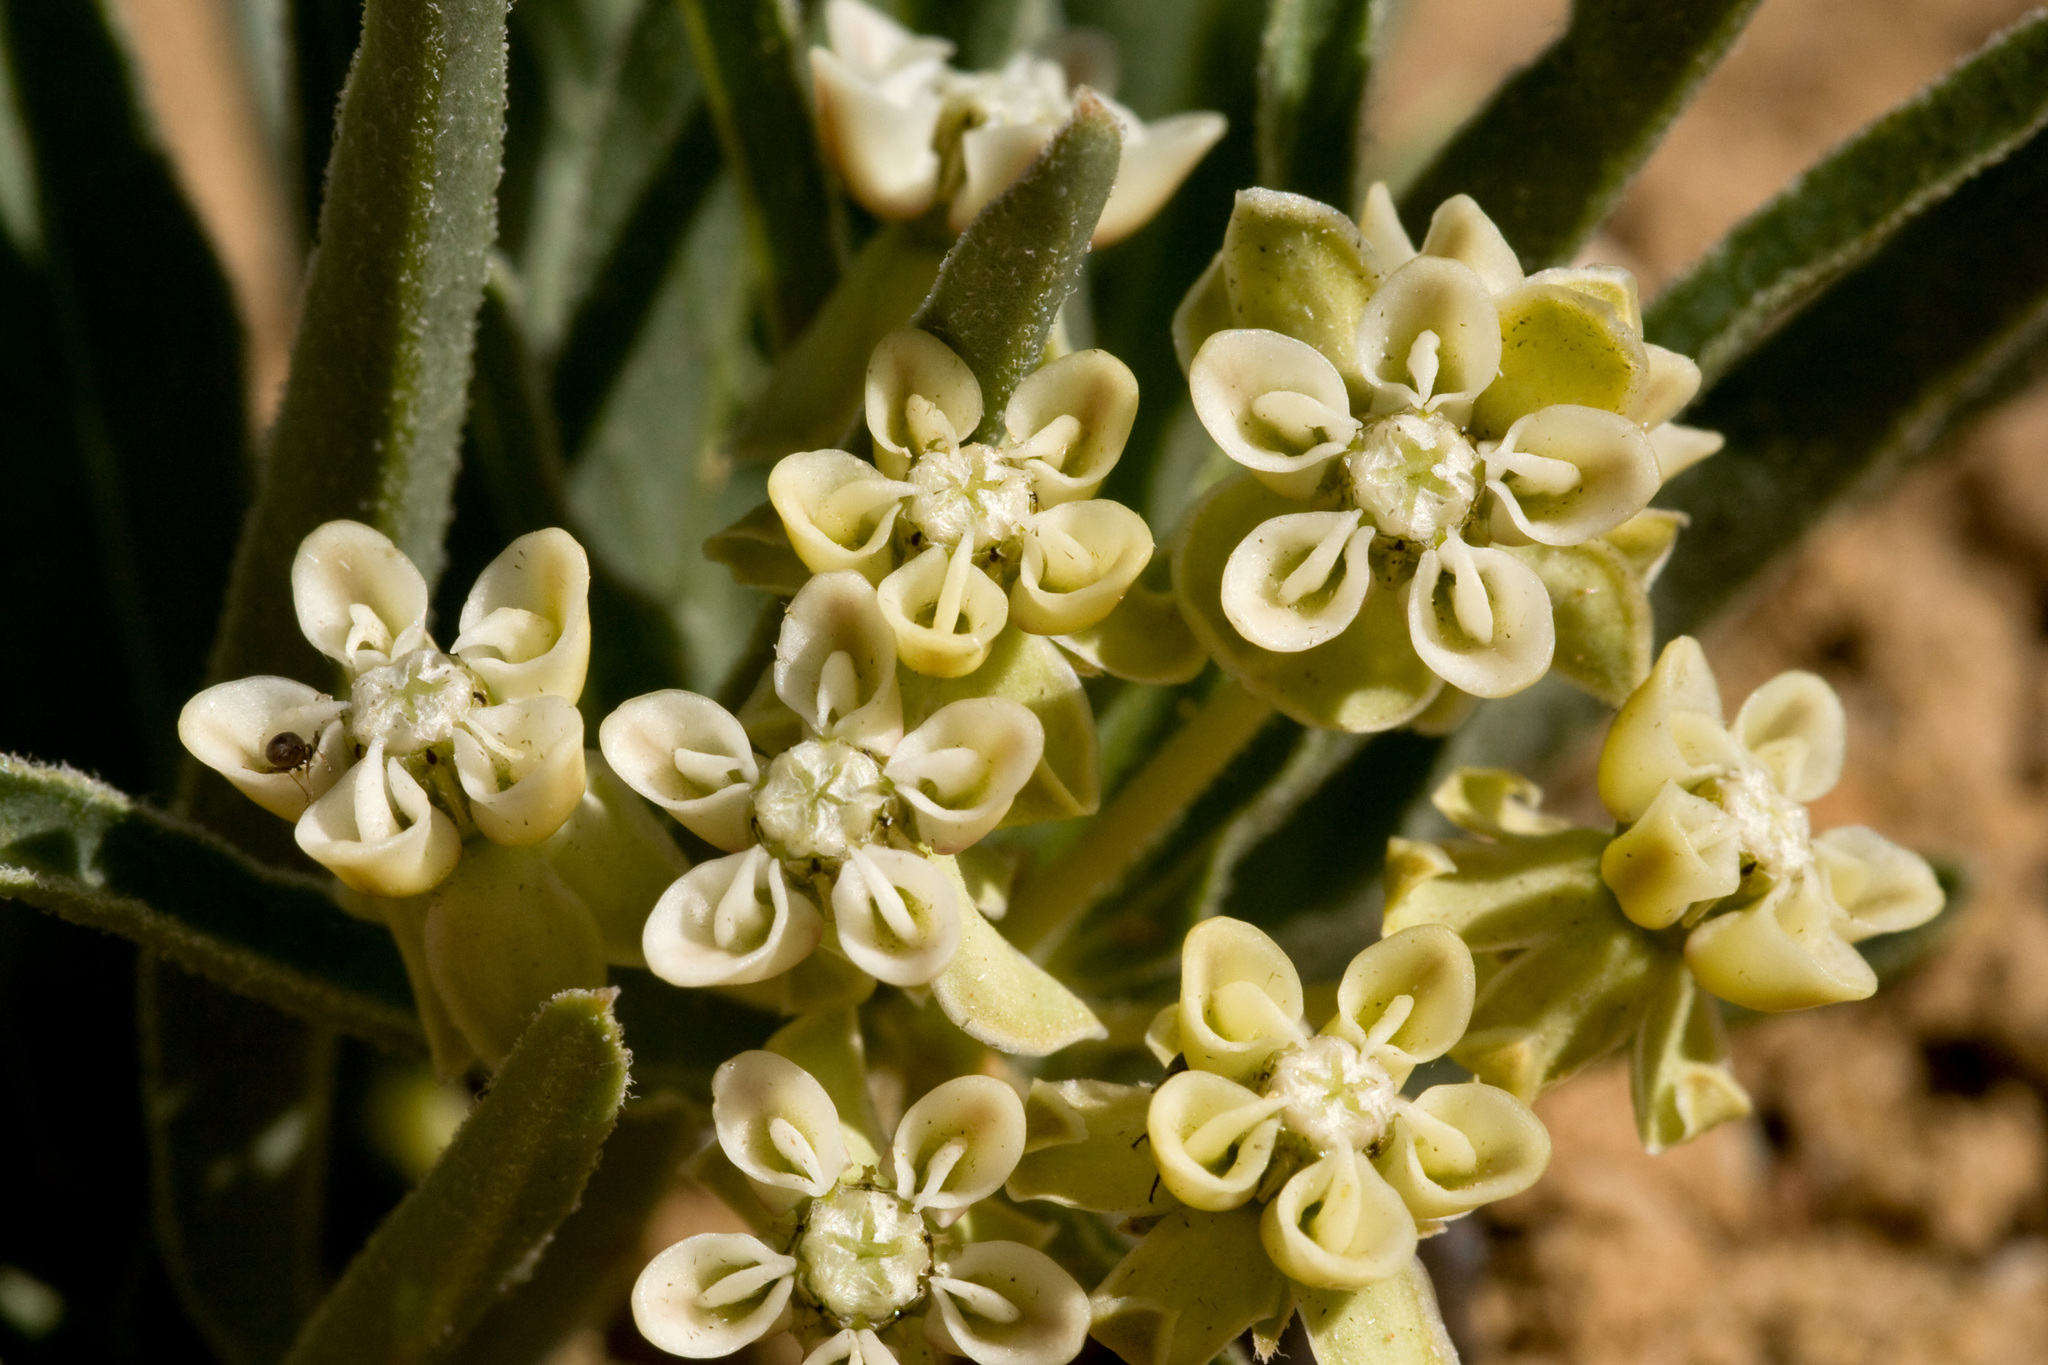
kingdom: Plantae
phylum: Tracheophyta
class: Magnoliopsida
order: Gentianales
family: Apocynaceae
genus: Asclepias
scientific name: Asclepias involucrata
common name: Dwarf milkweed
